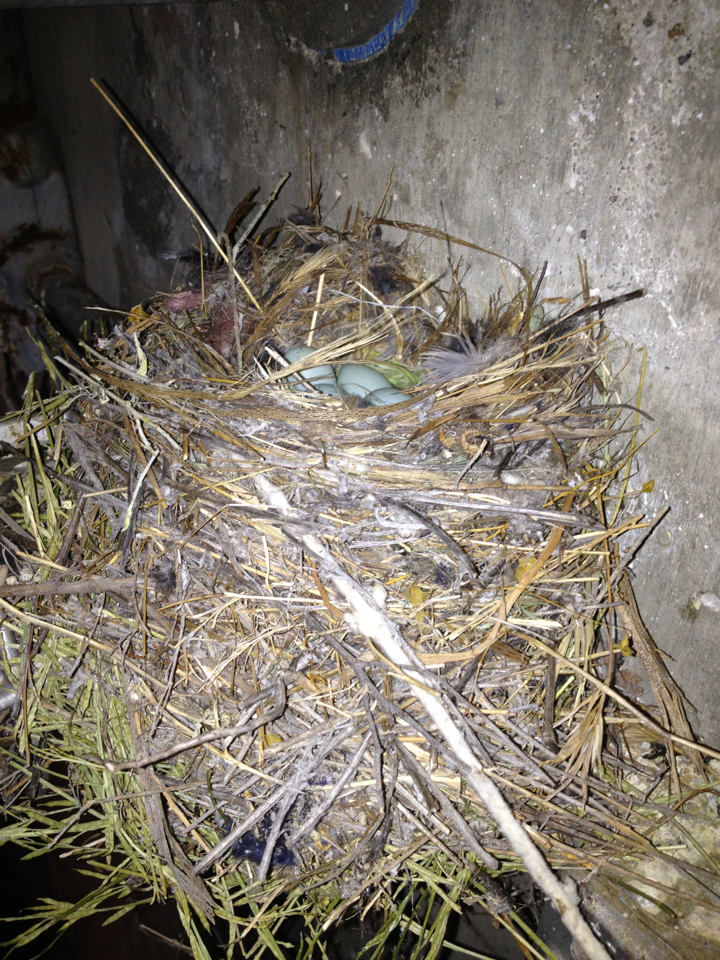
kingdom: Animalia
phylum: Chordata
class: Aves
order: Passeriformes
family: Fringillidae
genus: Haemorhous
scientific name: Haemorhous mexicanus
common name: House finch
